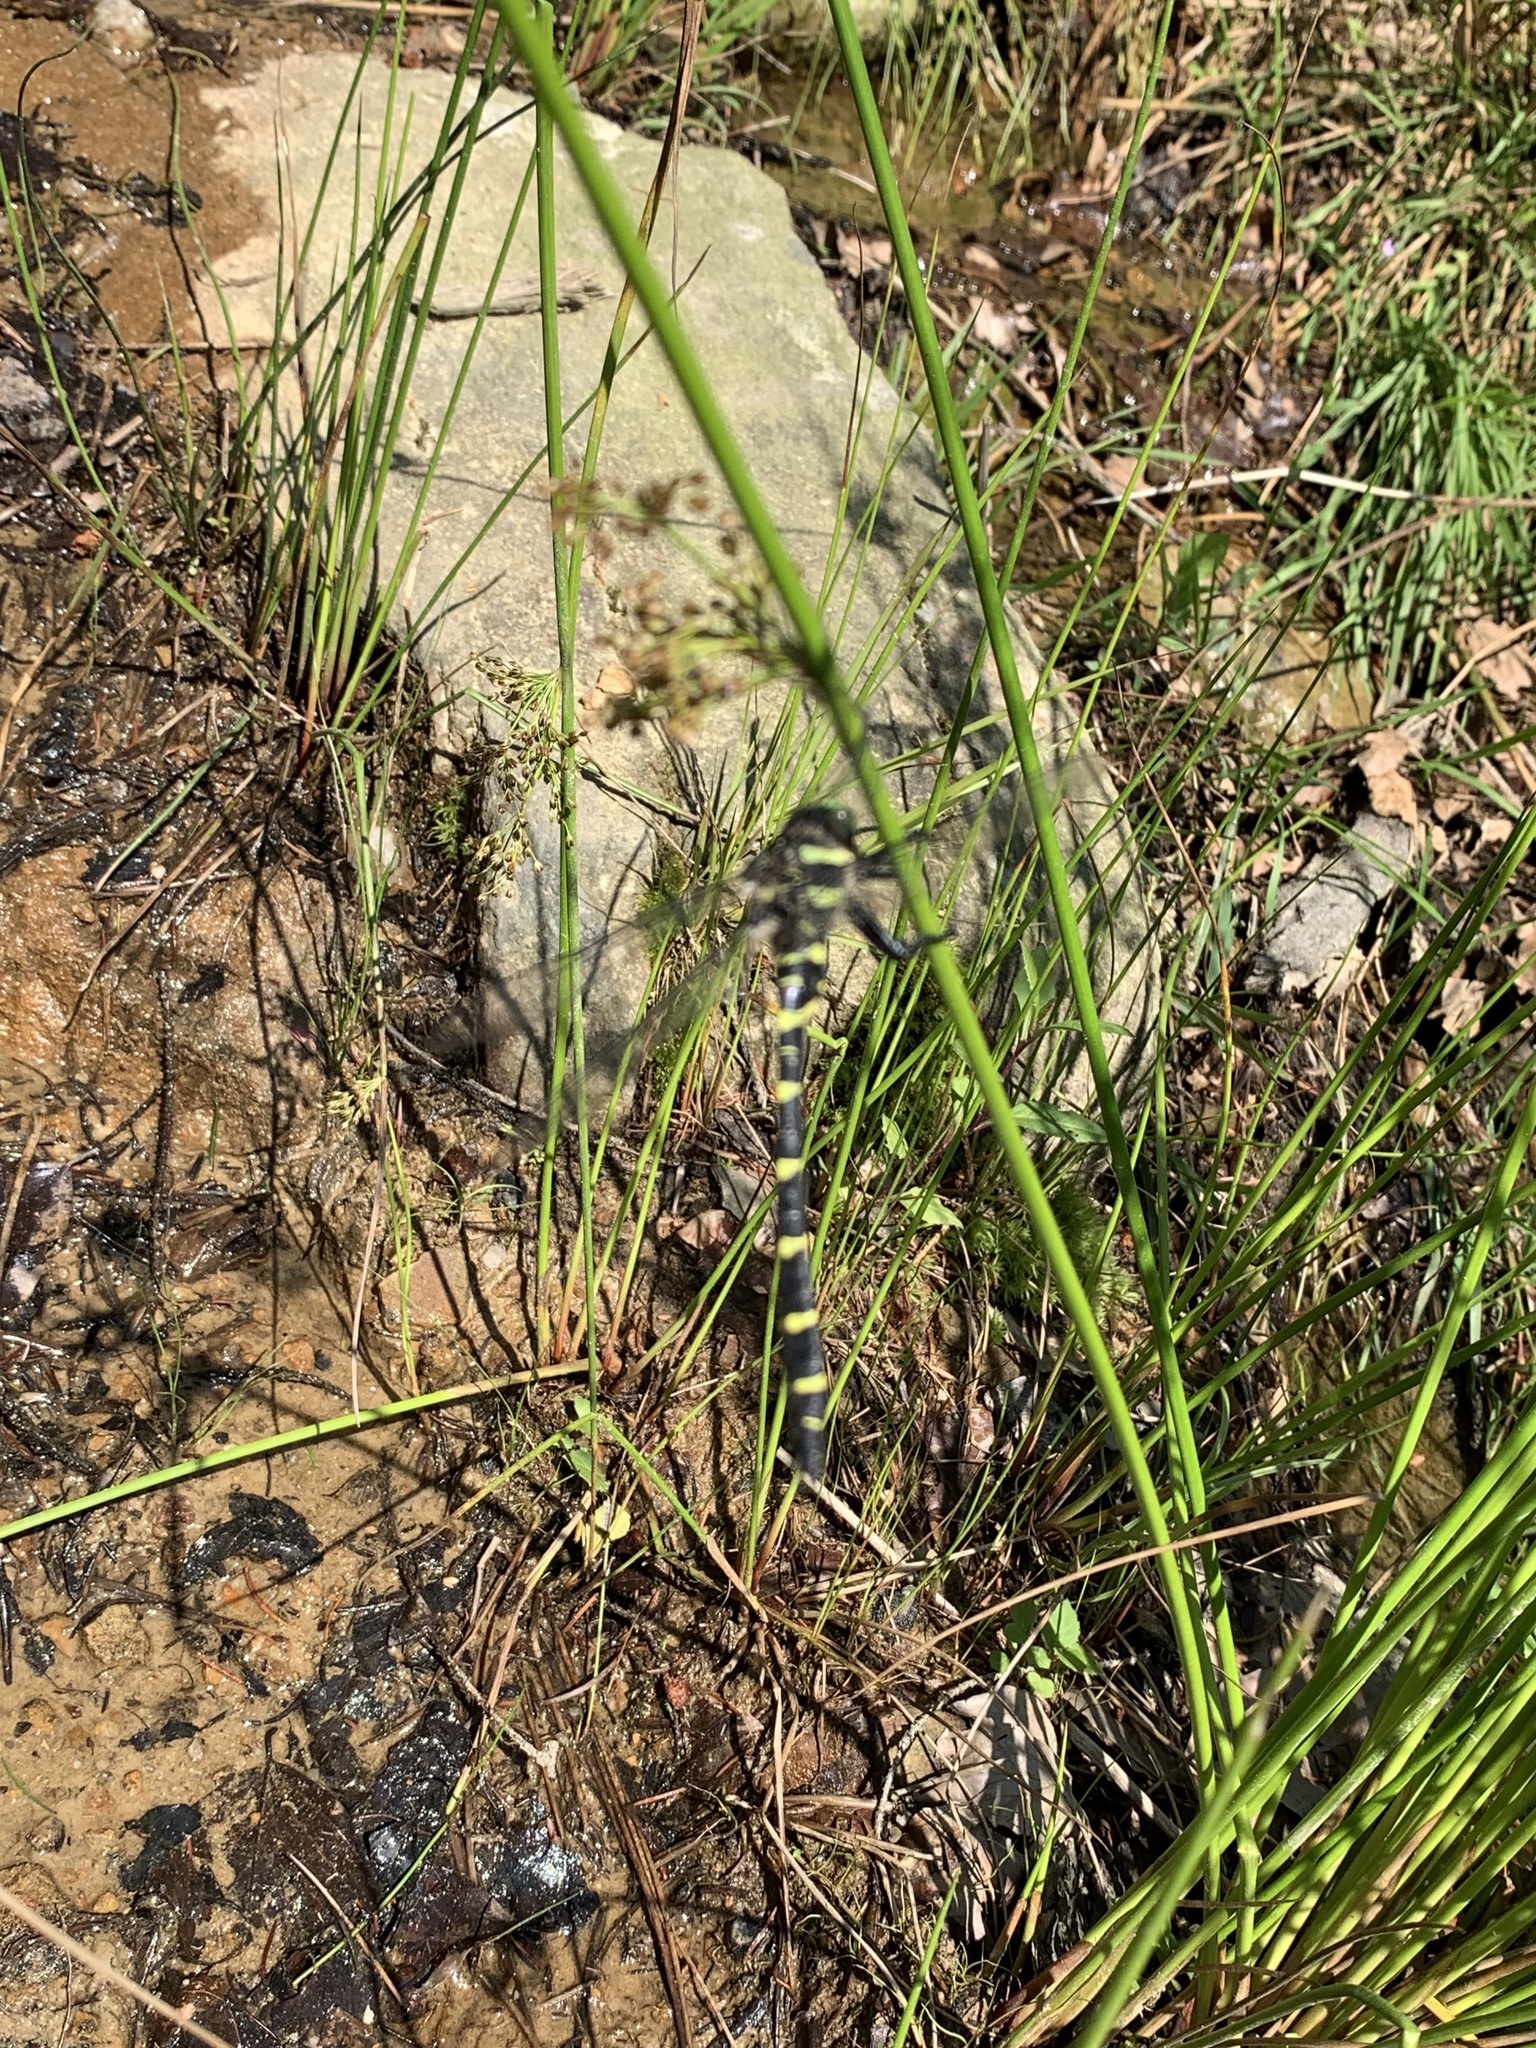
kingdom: Animalia
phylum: Arthropoda
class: Insecta
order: Odonata
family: Cordulegastridae
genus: Cordulegaster
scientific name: Cordulegaster bidentata
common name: Sombre goldenring
